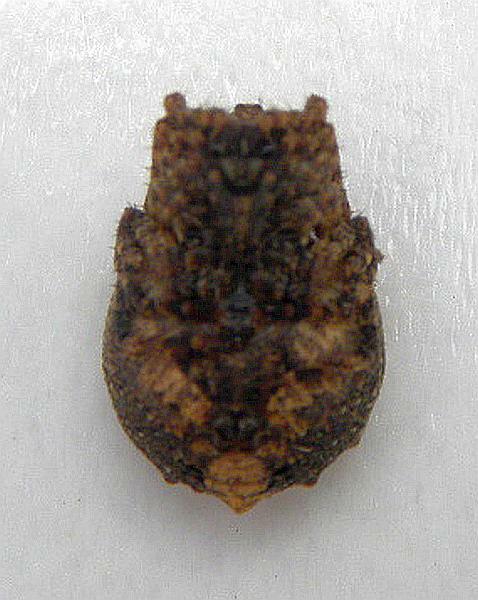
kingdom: Animalia
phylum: Arthropoda
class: Arachnida
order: Araneae
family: Araneidae
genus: Acanthepeira
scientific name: Acanthepeira cherokee
